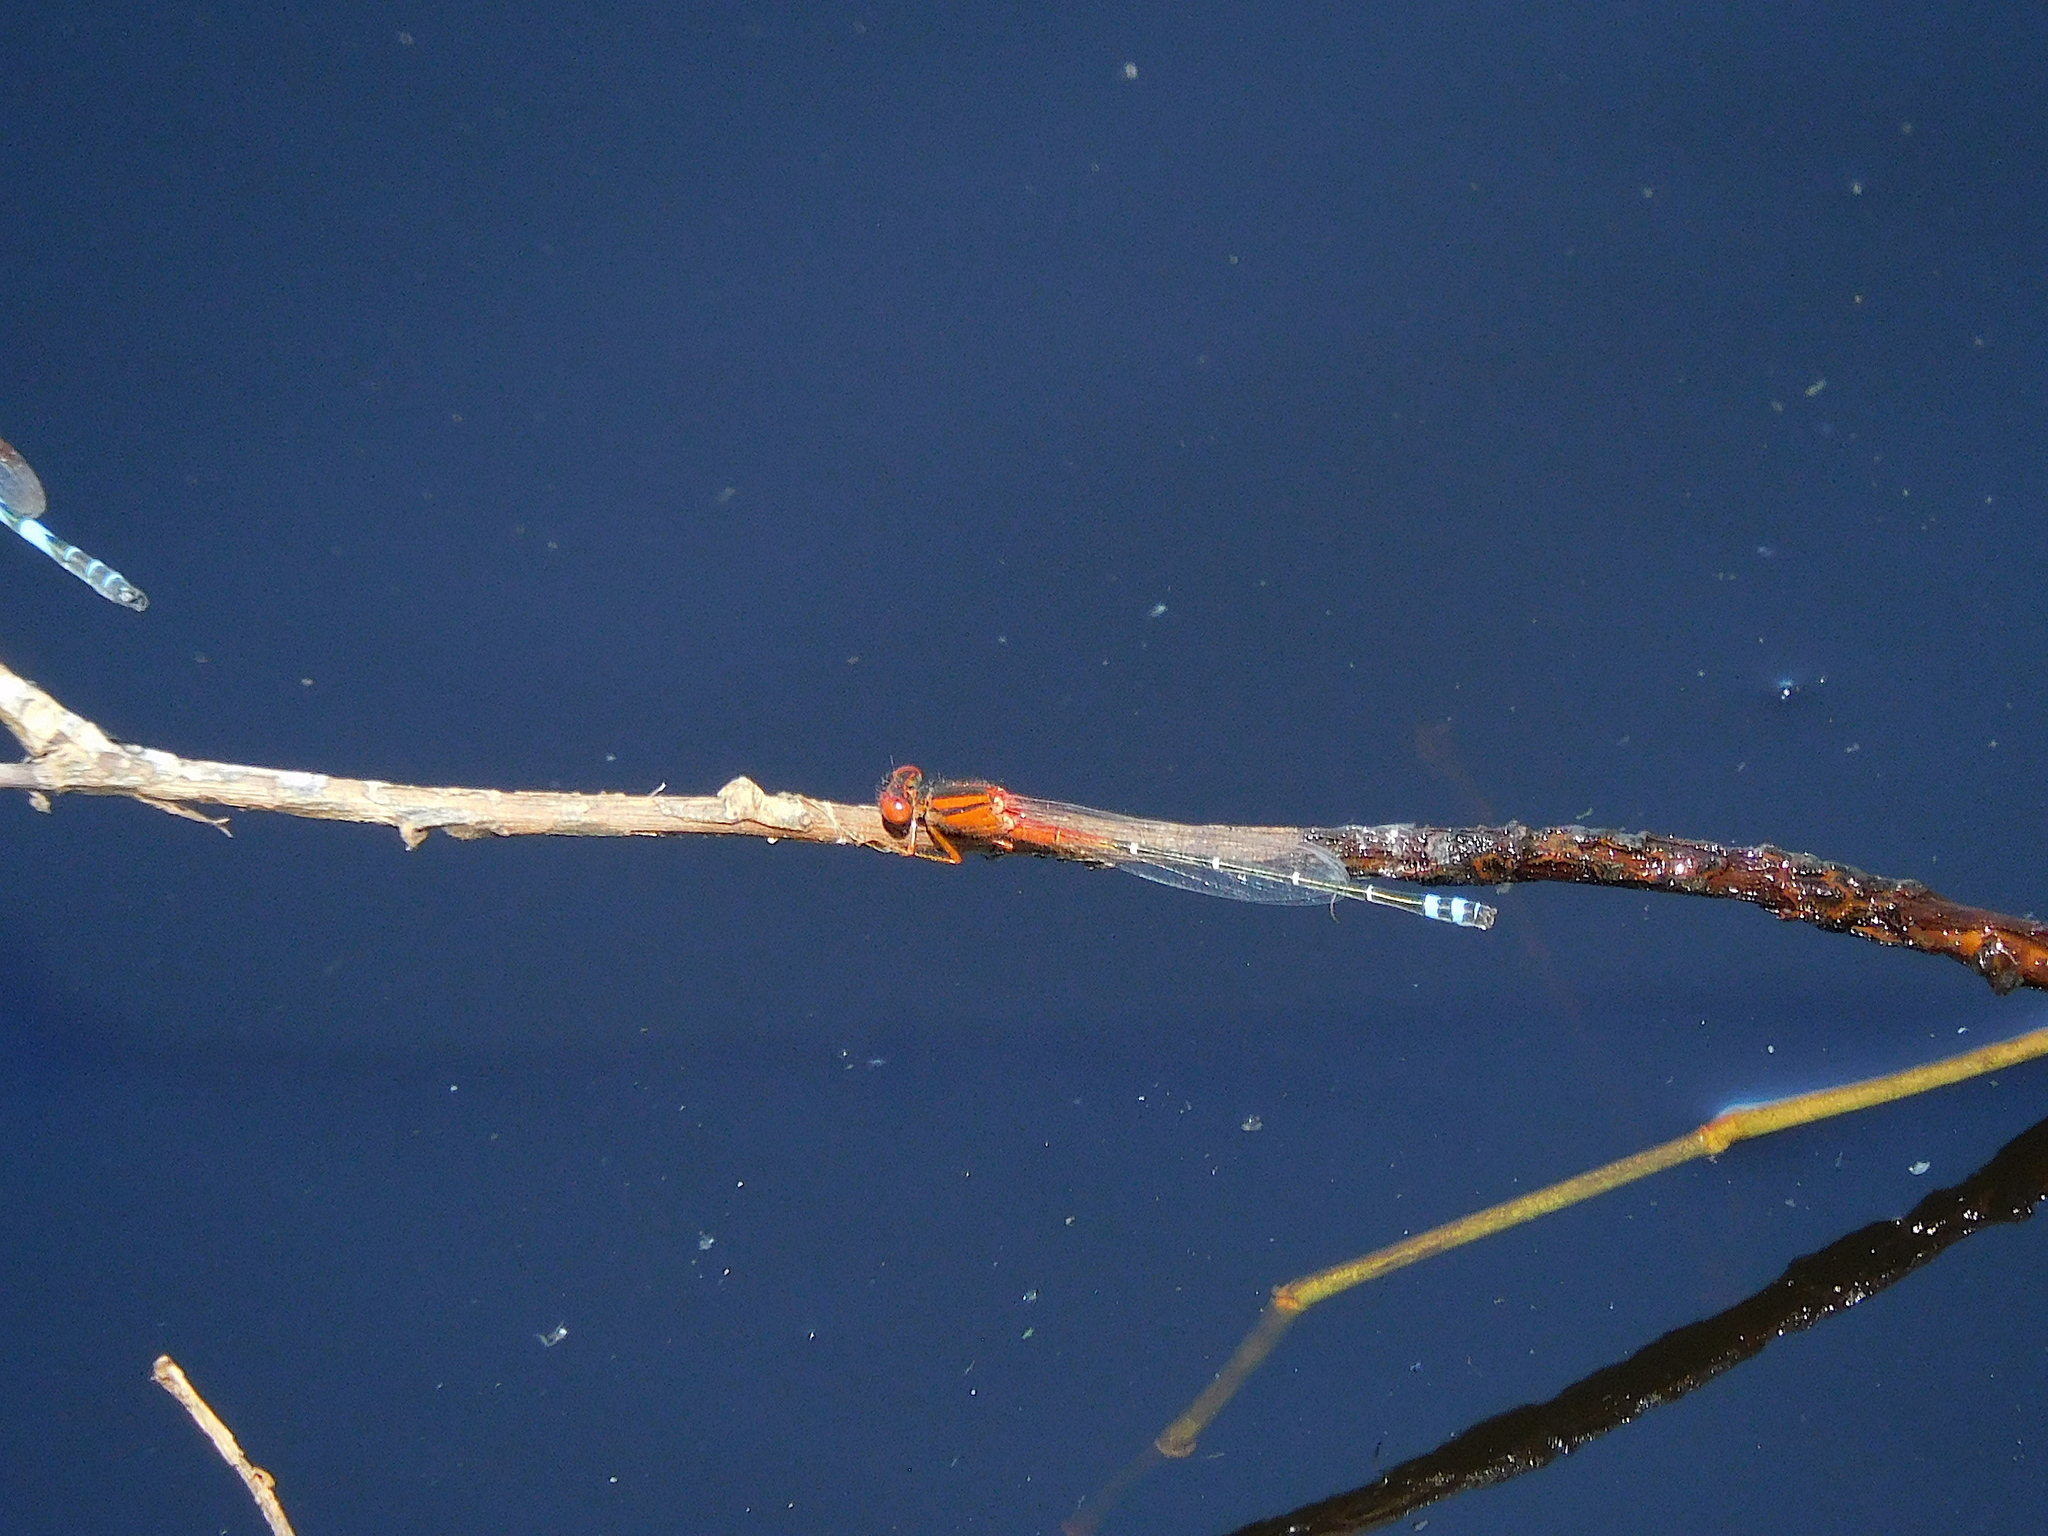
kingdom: Animalia
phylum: Arthropoda
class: Insecta
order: Odonata
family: Coenagrionidae
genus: Xanthagrion
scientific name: Xanthagrion erythroneurum
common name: Red and blue damsel
